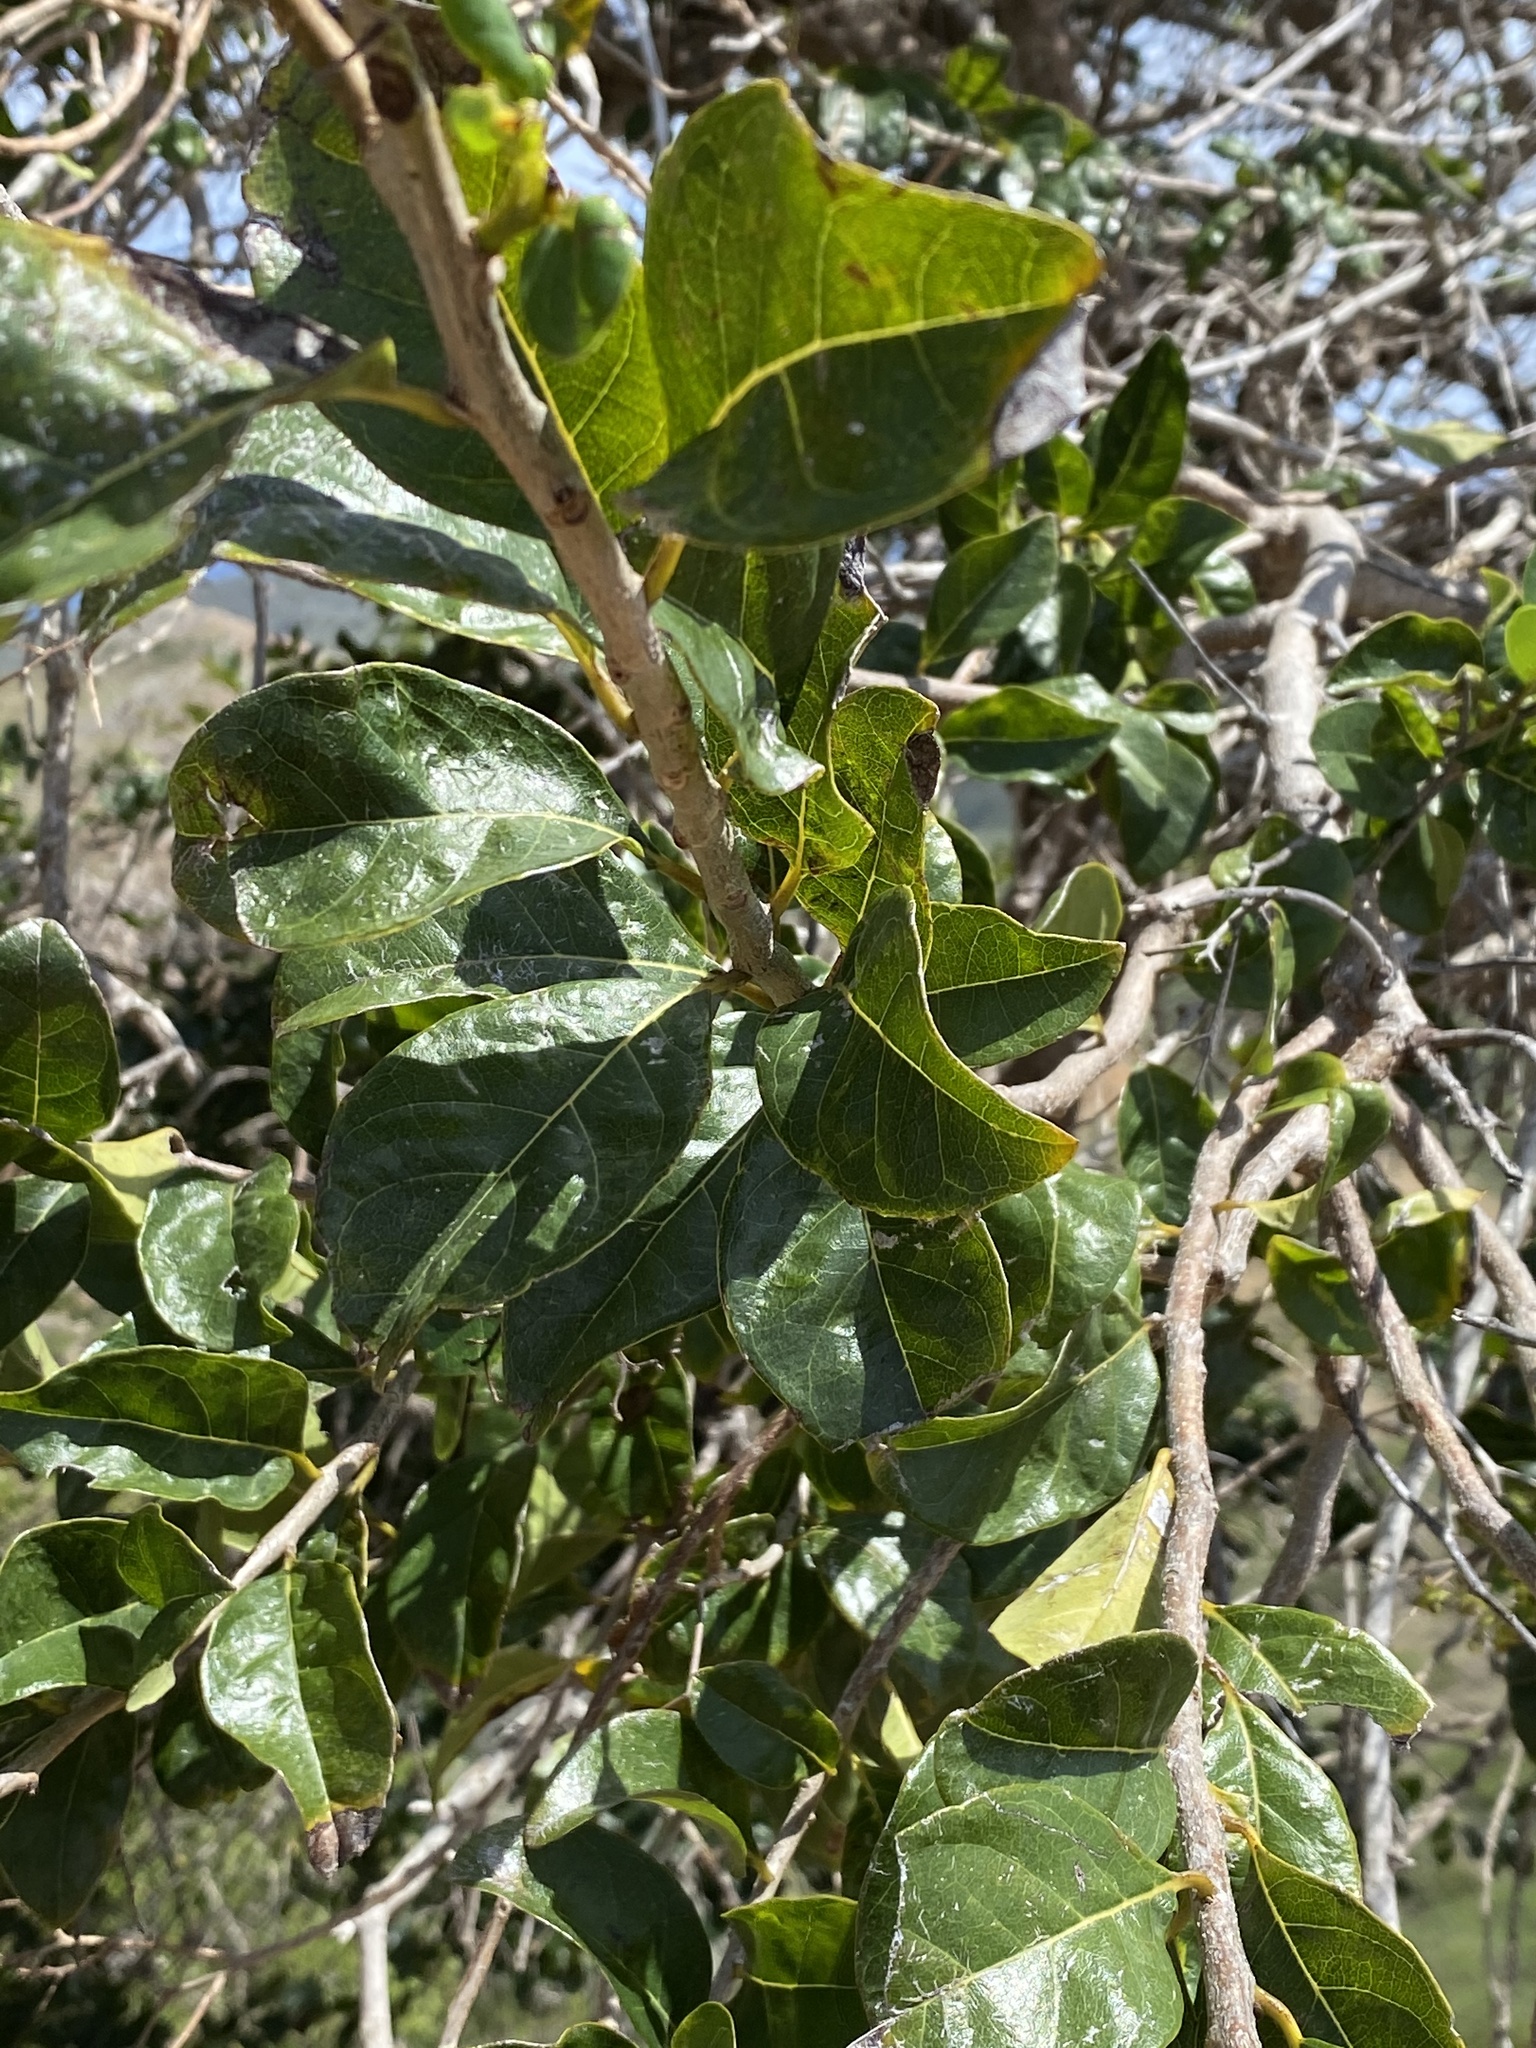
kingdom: Plantae
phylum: Tracheophyta
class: Magnoliopsida
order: Boraginales
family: Ehretiaceae
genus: Bourreria
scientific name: Bourreria succulenta
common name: Cherry
